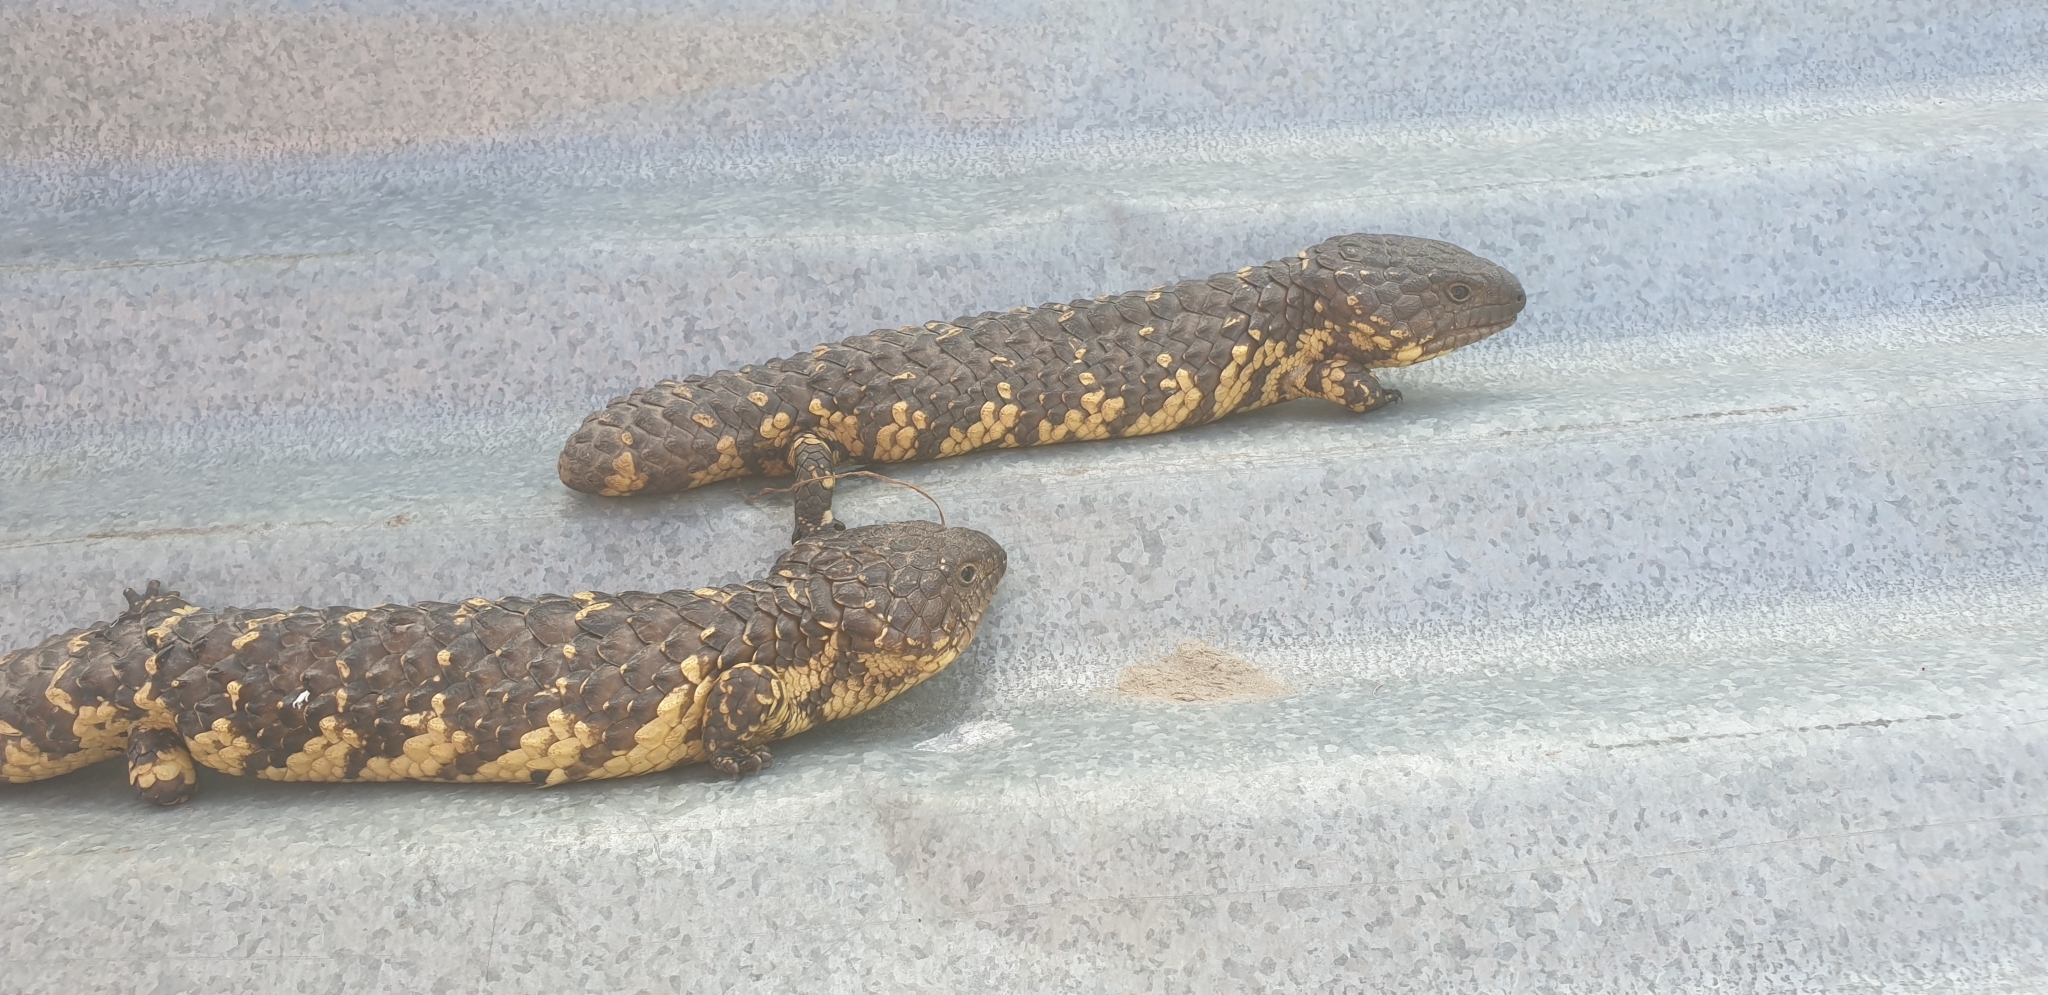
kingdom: Animalia
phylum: Chordata
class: Squamata
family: Scincidae
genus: Tiliqua
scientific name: Tiliqua rugosa
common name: Pinecone lizard
